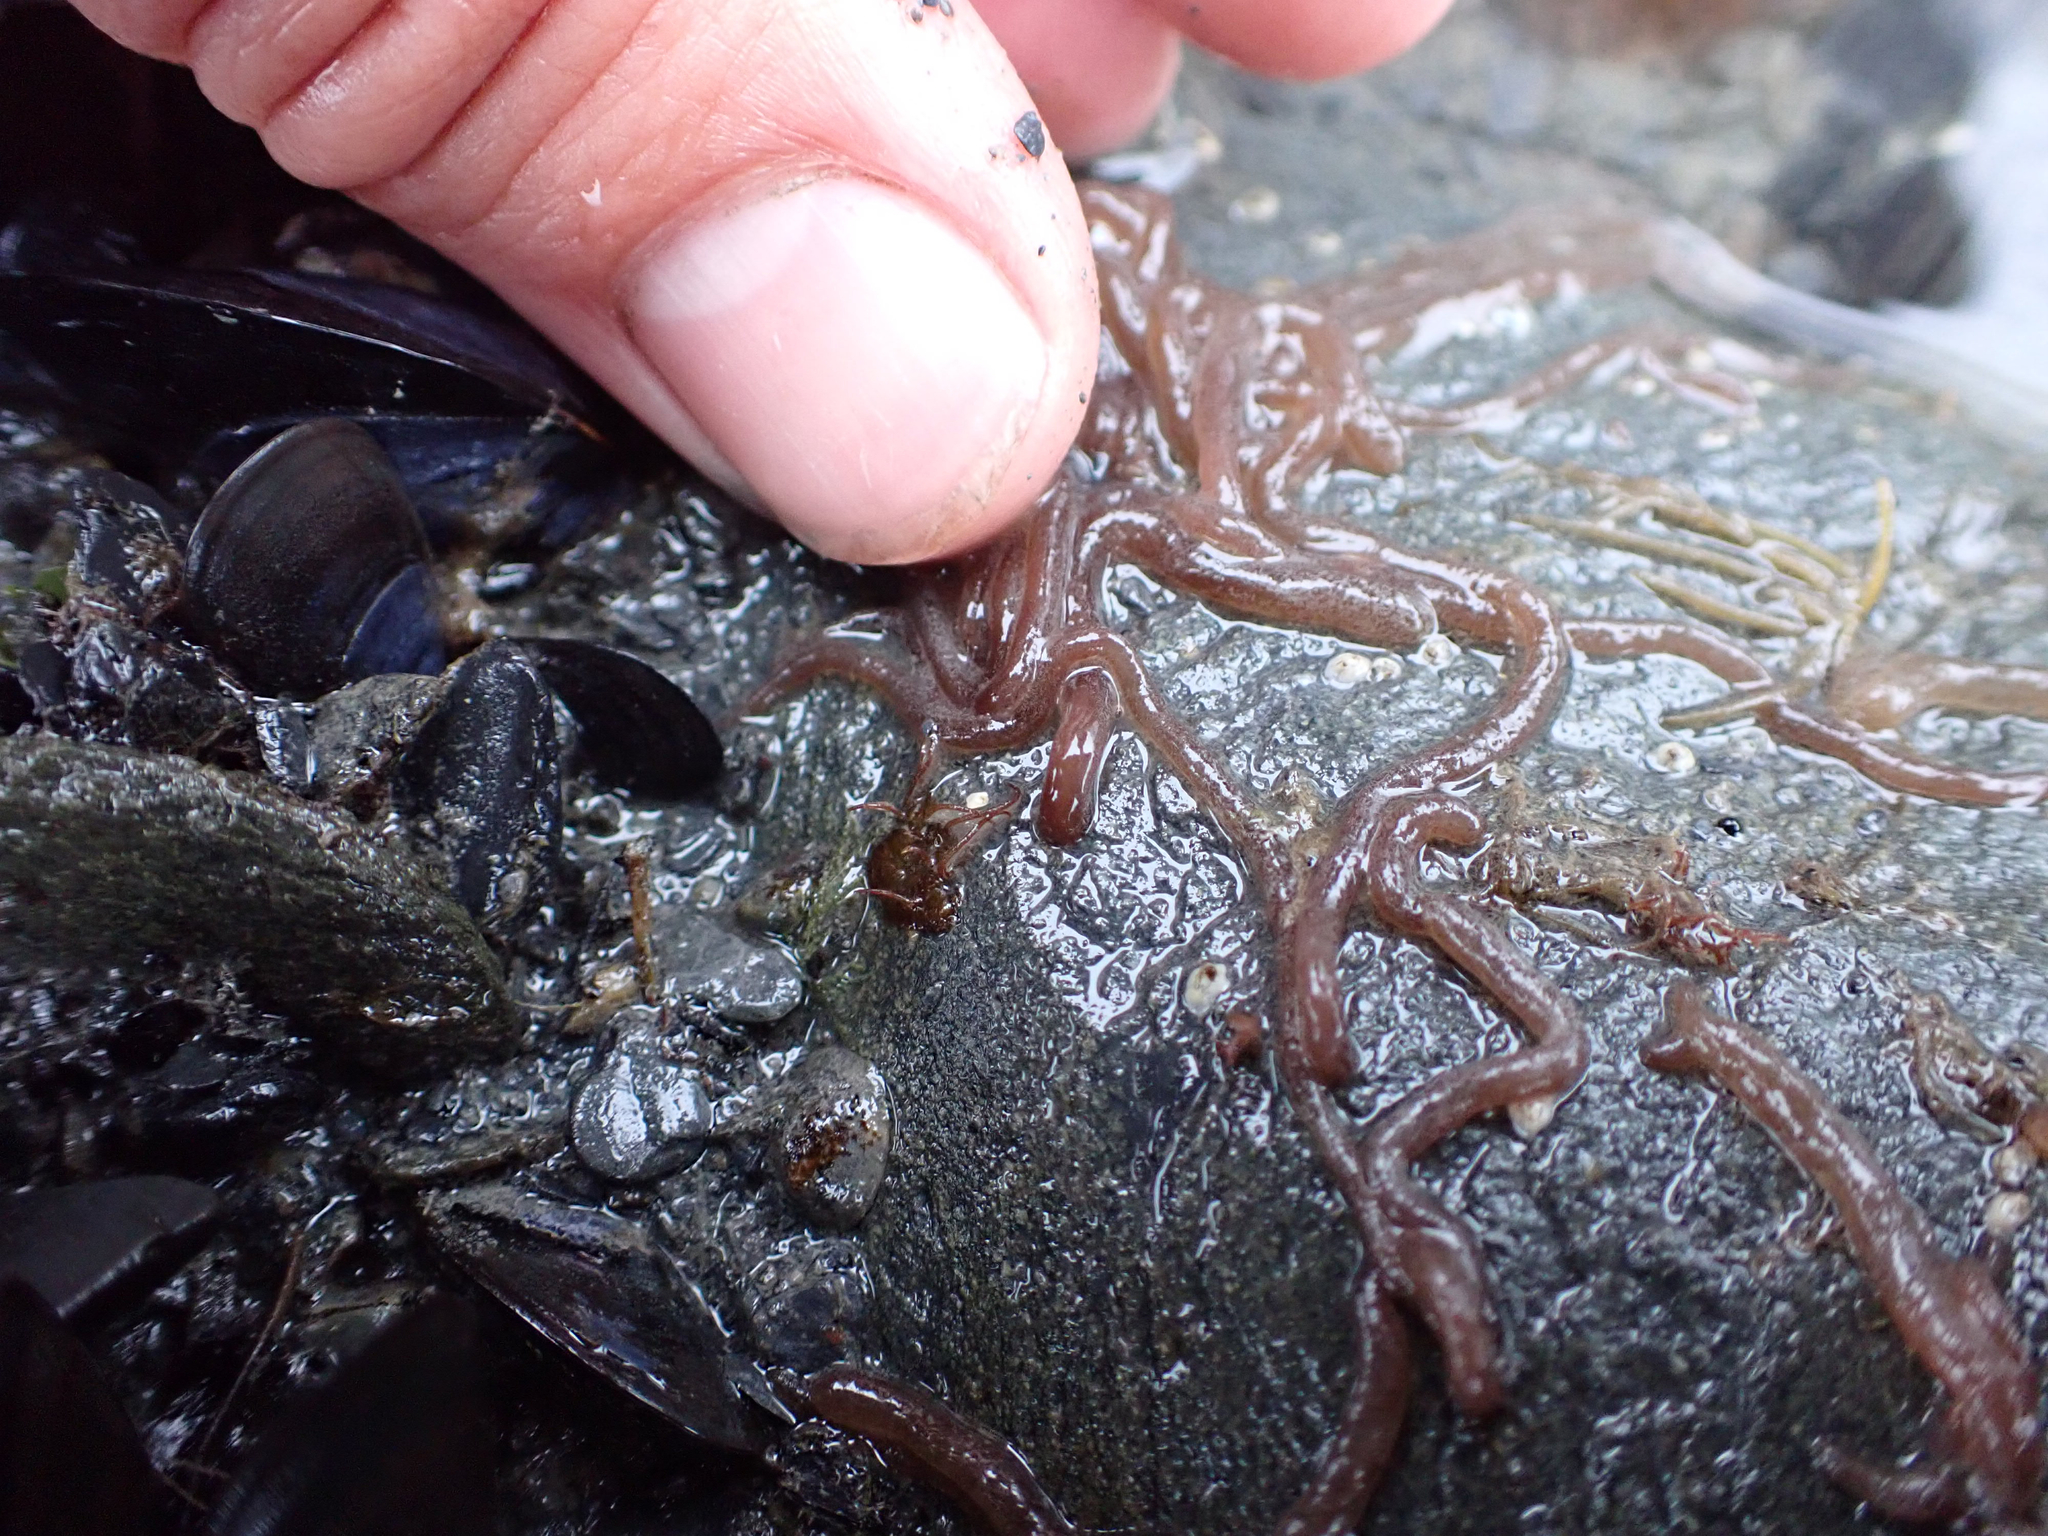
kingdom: Plantae
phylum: Rhodophyta
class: Florideophyceae
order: Nemaliales
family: Nemaliaceae
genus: Nemalion
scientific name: Nemalion elminthoides
